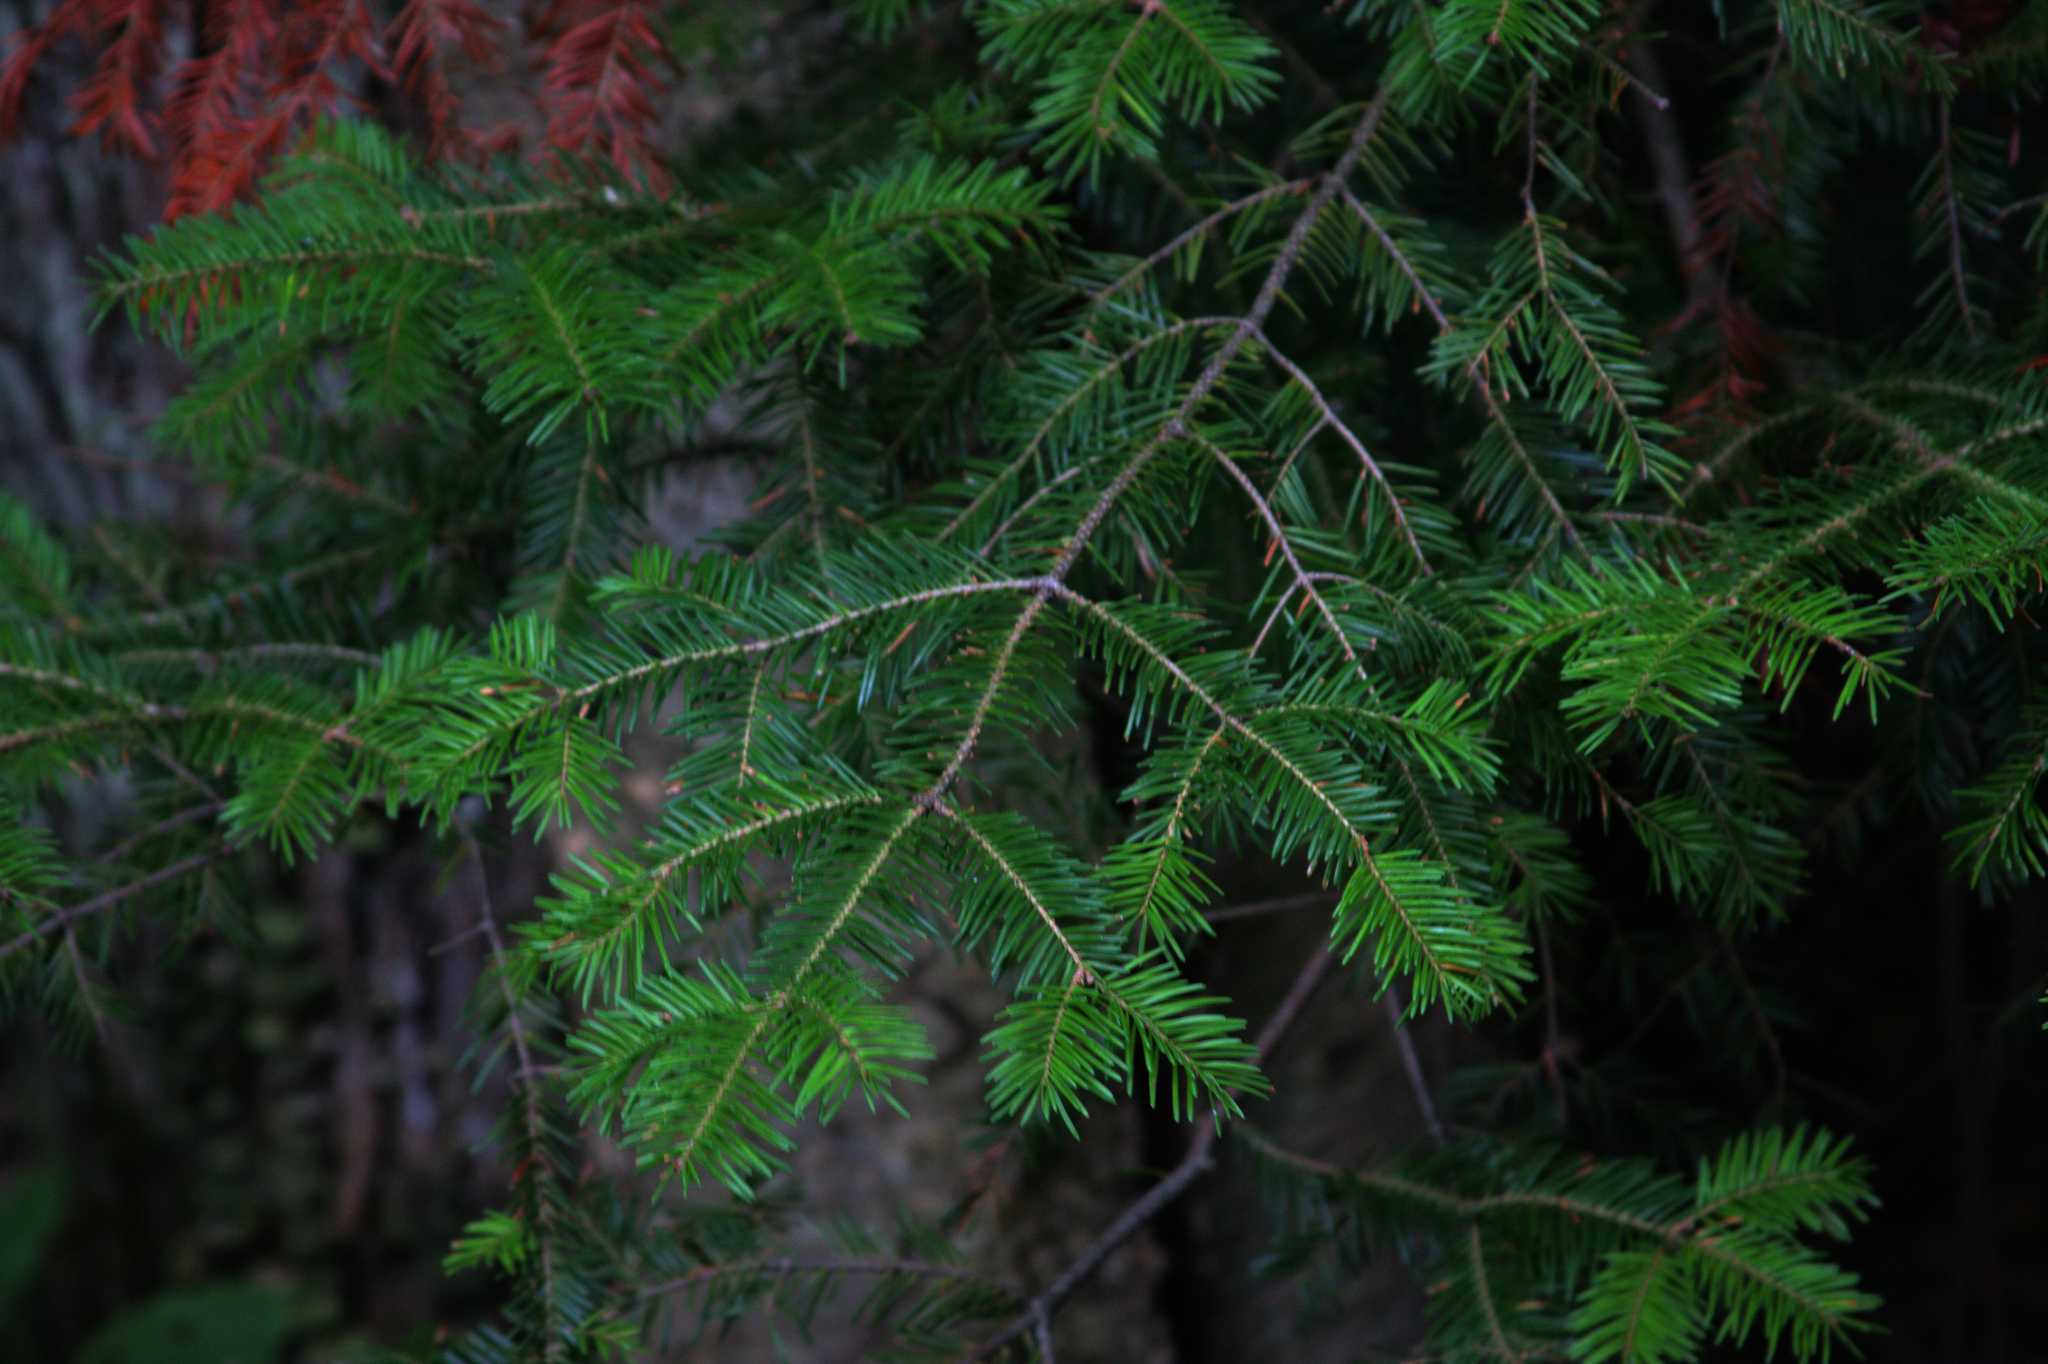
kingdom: Plantae
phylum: Tracheophyta
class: Pinopsida
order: Pinales
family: Pinaceae
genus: Abies
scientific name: Abies balsamea
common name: Balsam fir
